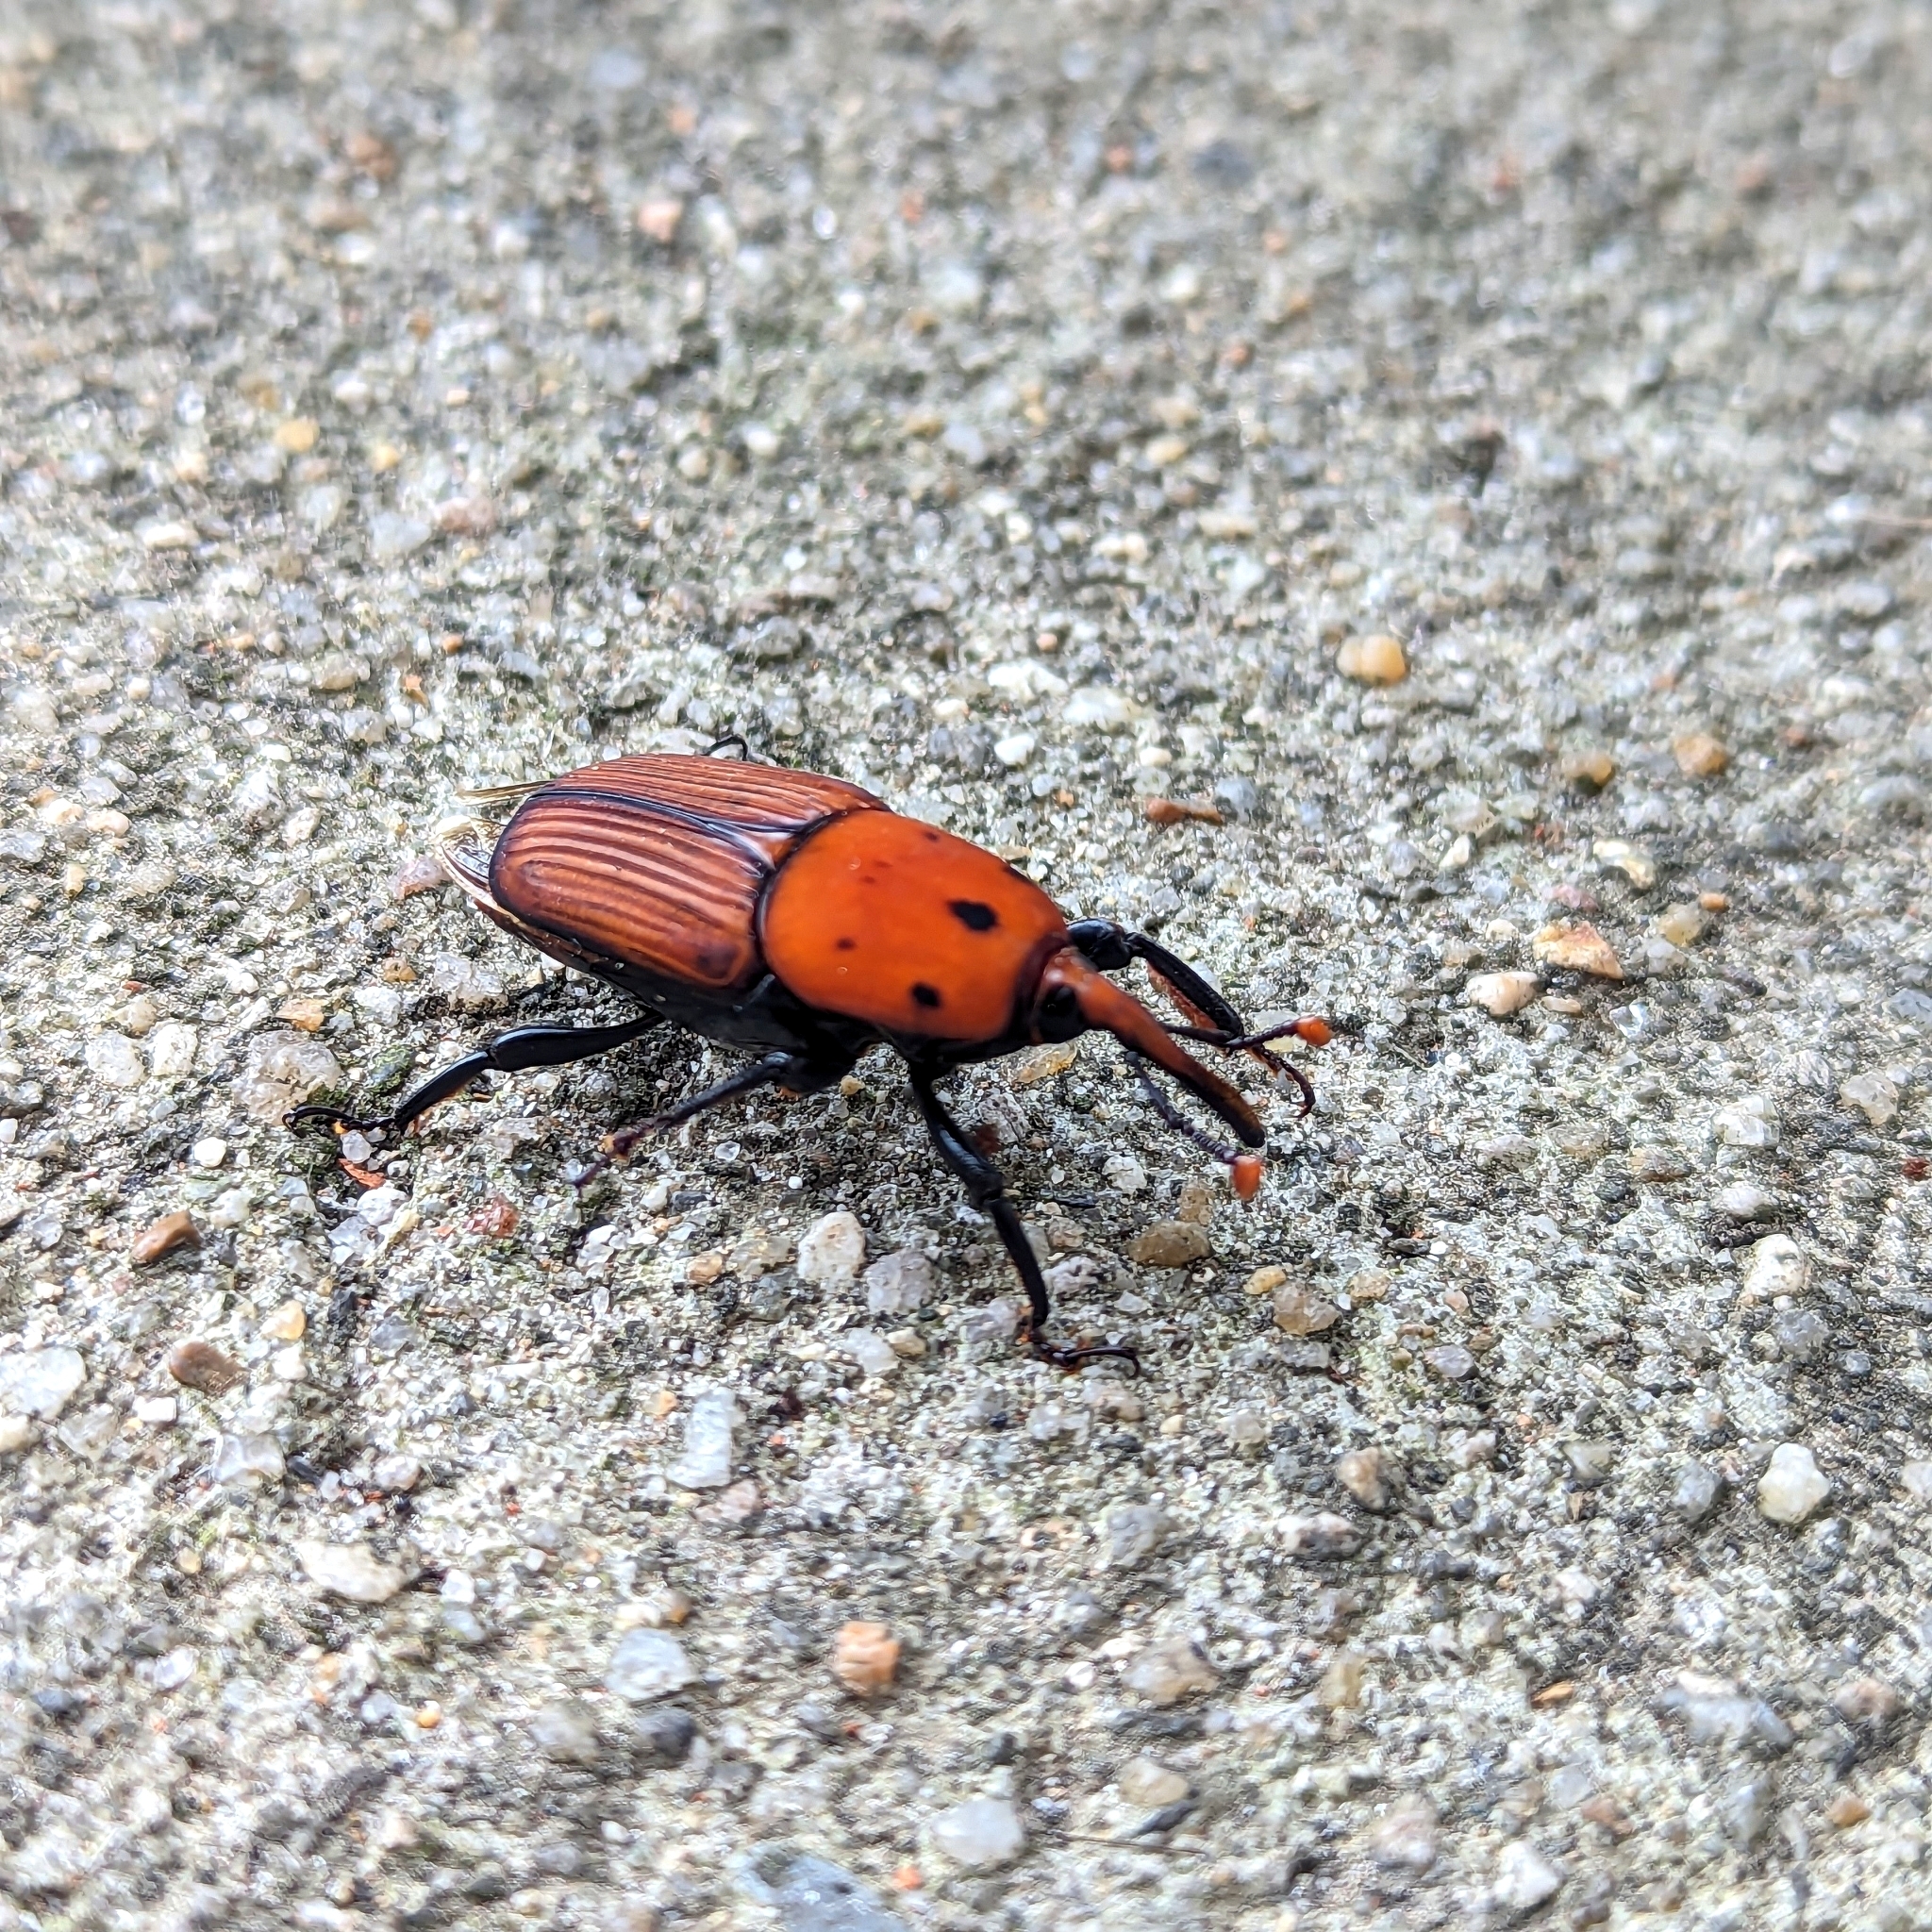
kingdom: Animalia
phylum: Arthropoda
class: Insecta
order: Coleoptera
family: Dryophthoridae
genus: Rhynchophorus
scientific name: Rhynchophorus ferrugineus
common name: Red palm weevil
